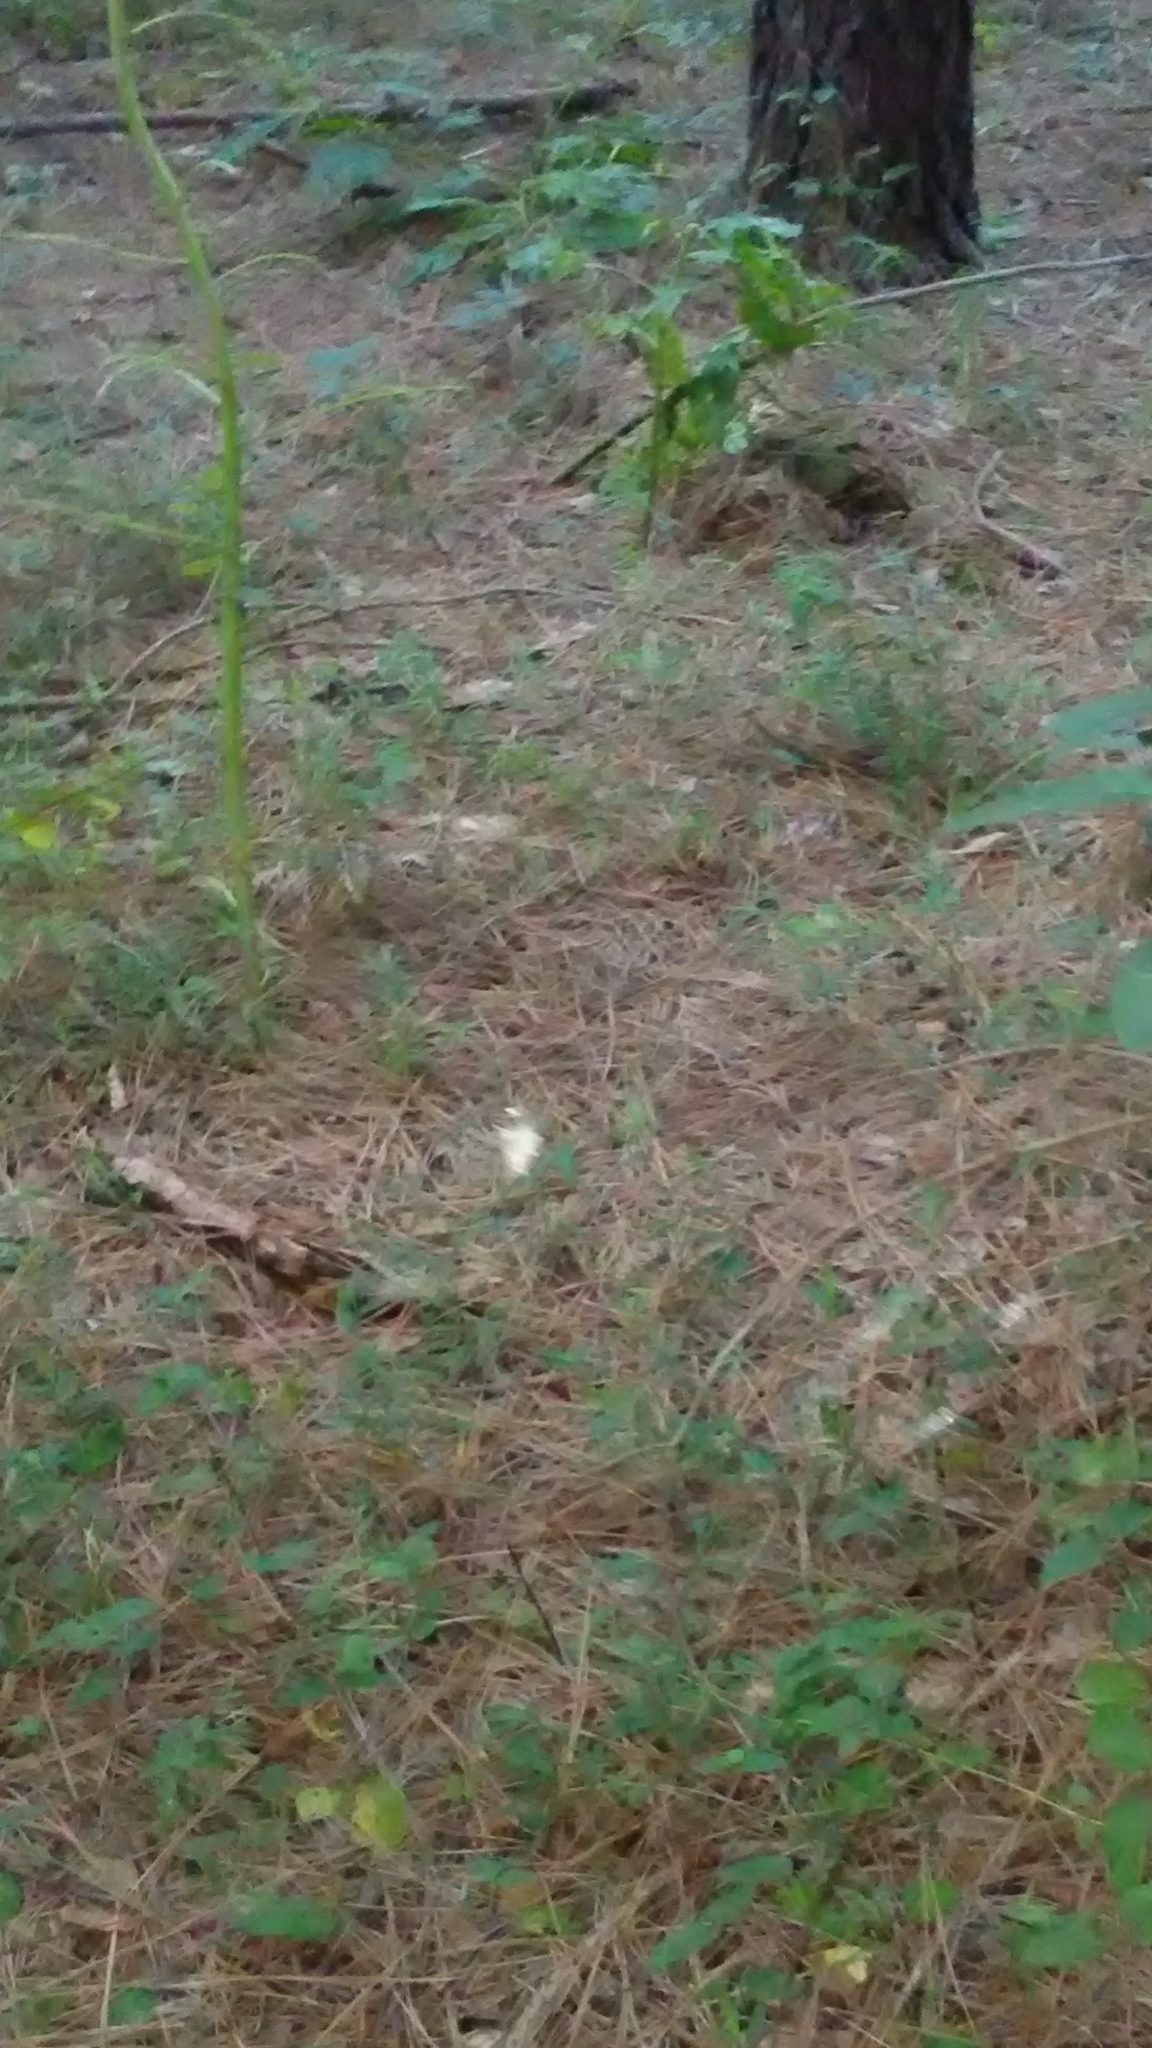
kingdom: Animalia
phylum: Arthropoda
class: Arachnida
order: Araneae
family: Araneidae
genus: Micrathena
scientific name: Micrathena gracilis
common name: Orb weavers
